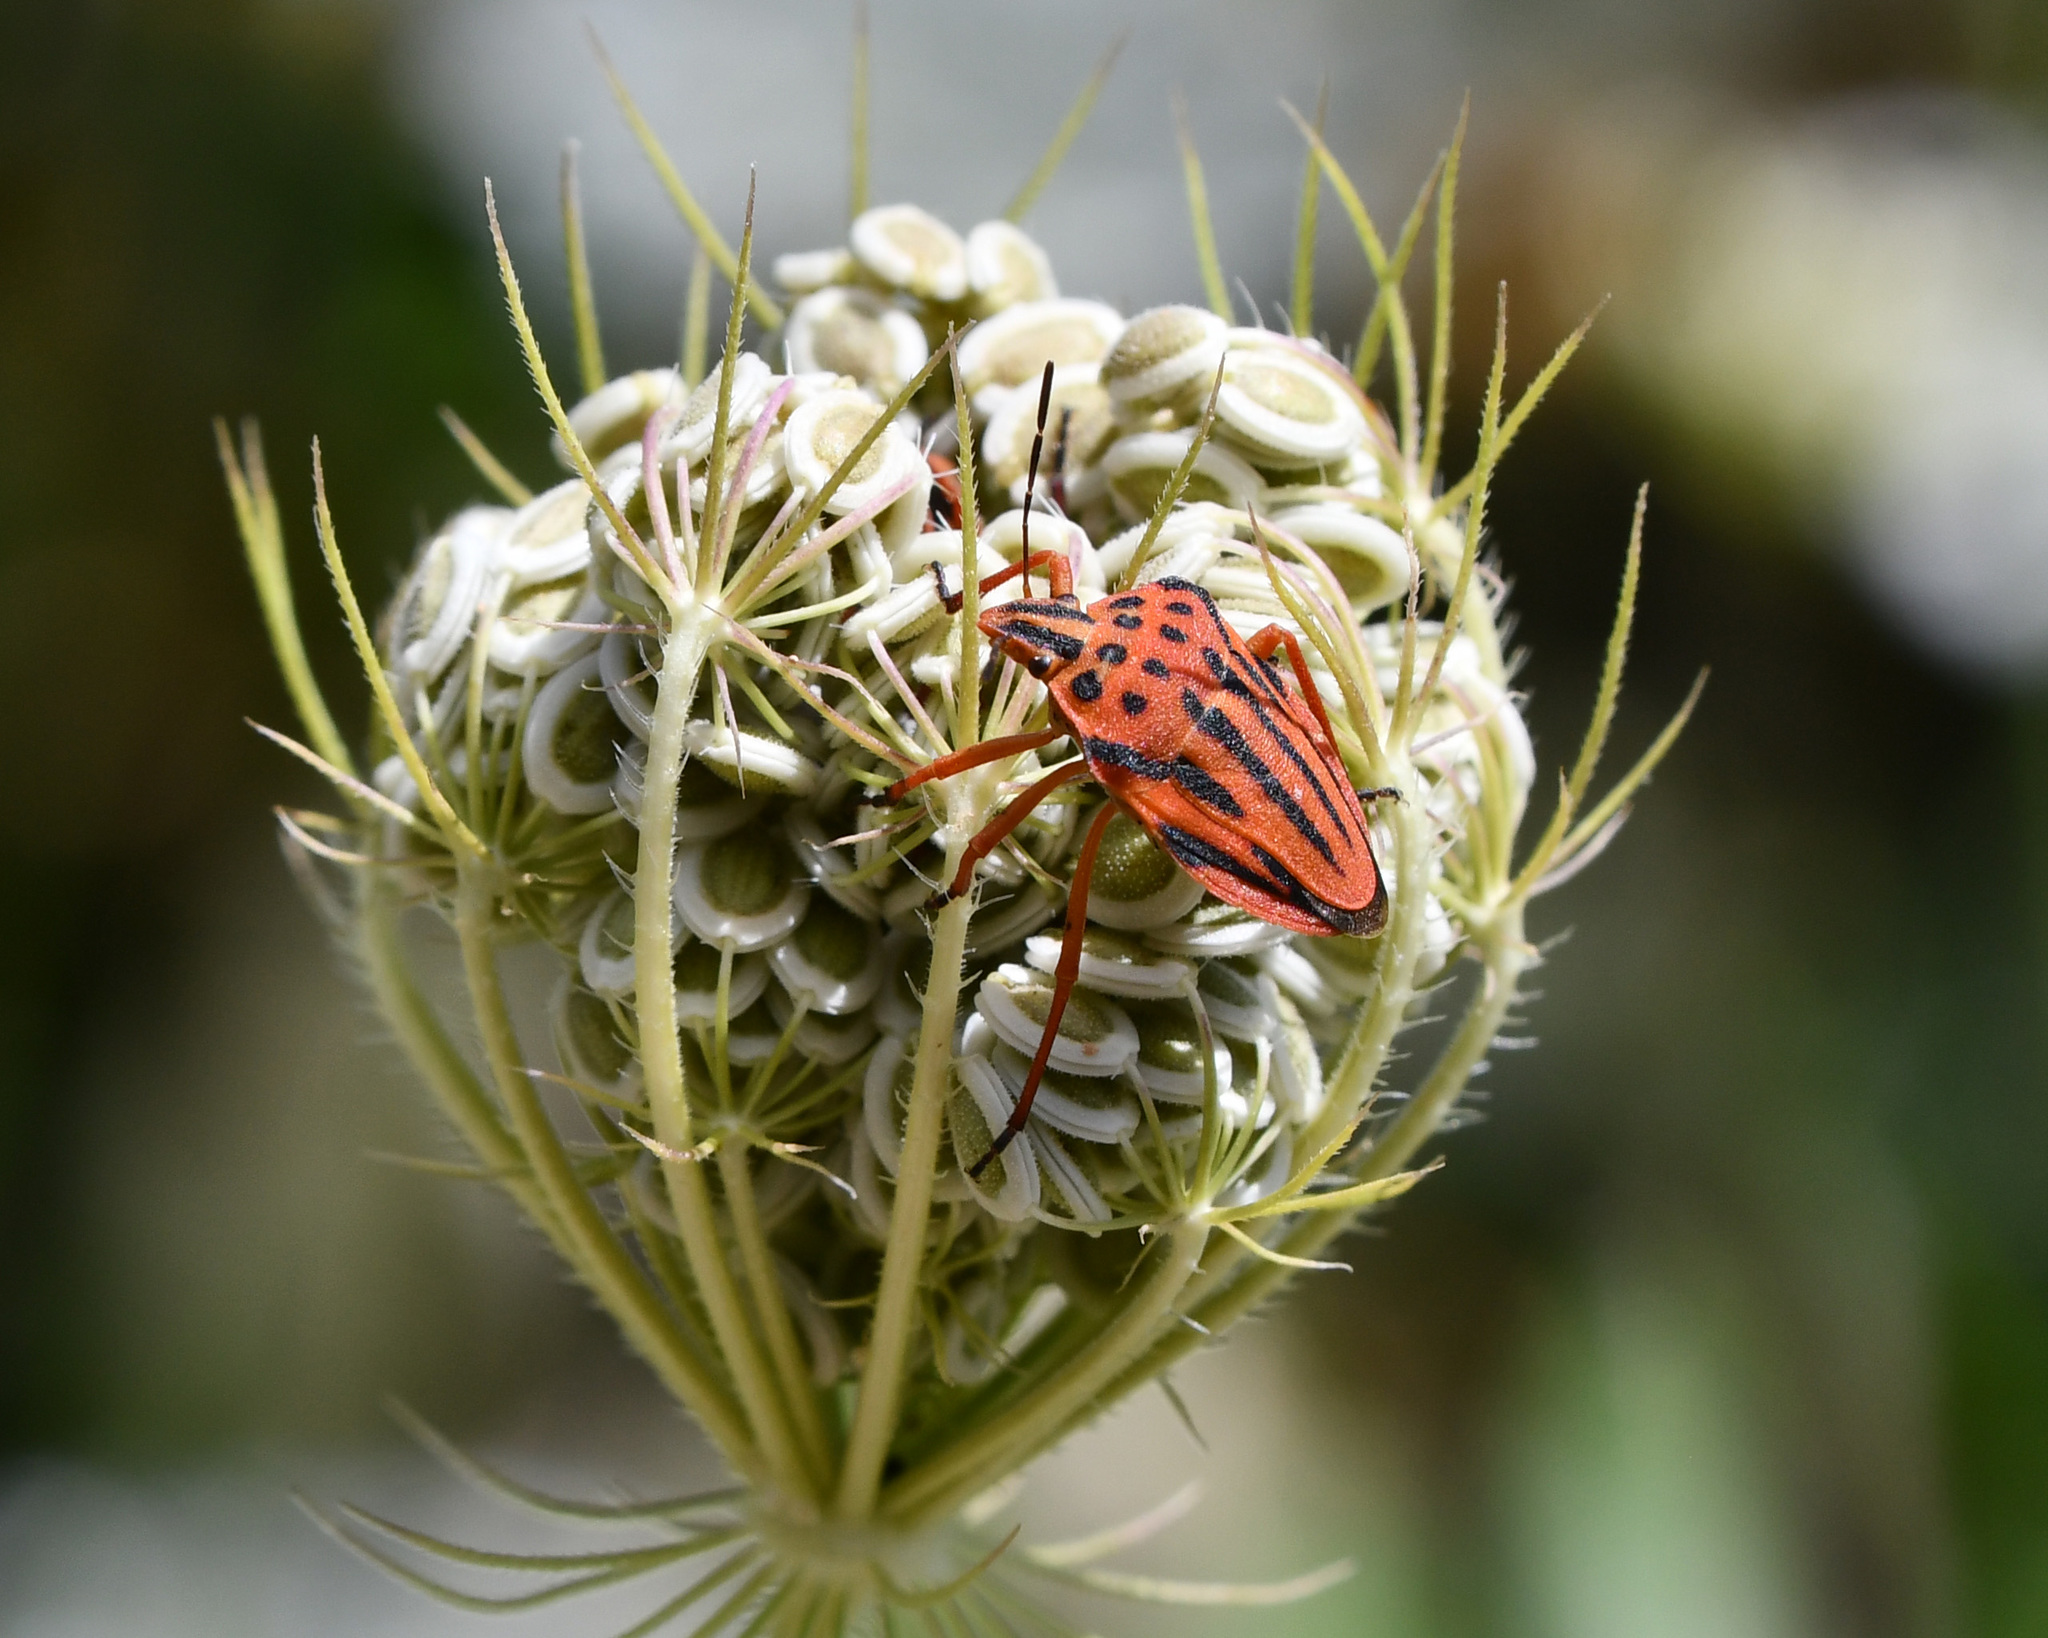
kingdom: Animalia
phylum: Arthropoda
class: Insecta
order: Hemiptera
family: Pentatomidae
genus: Graphosoma
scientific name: Graphosoma semipunctatum
